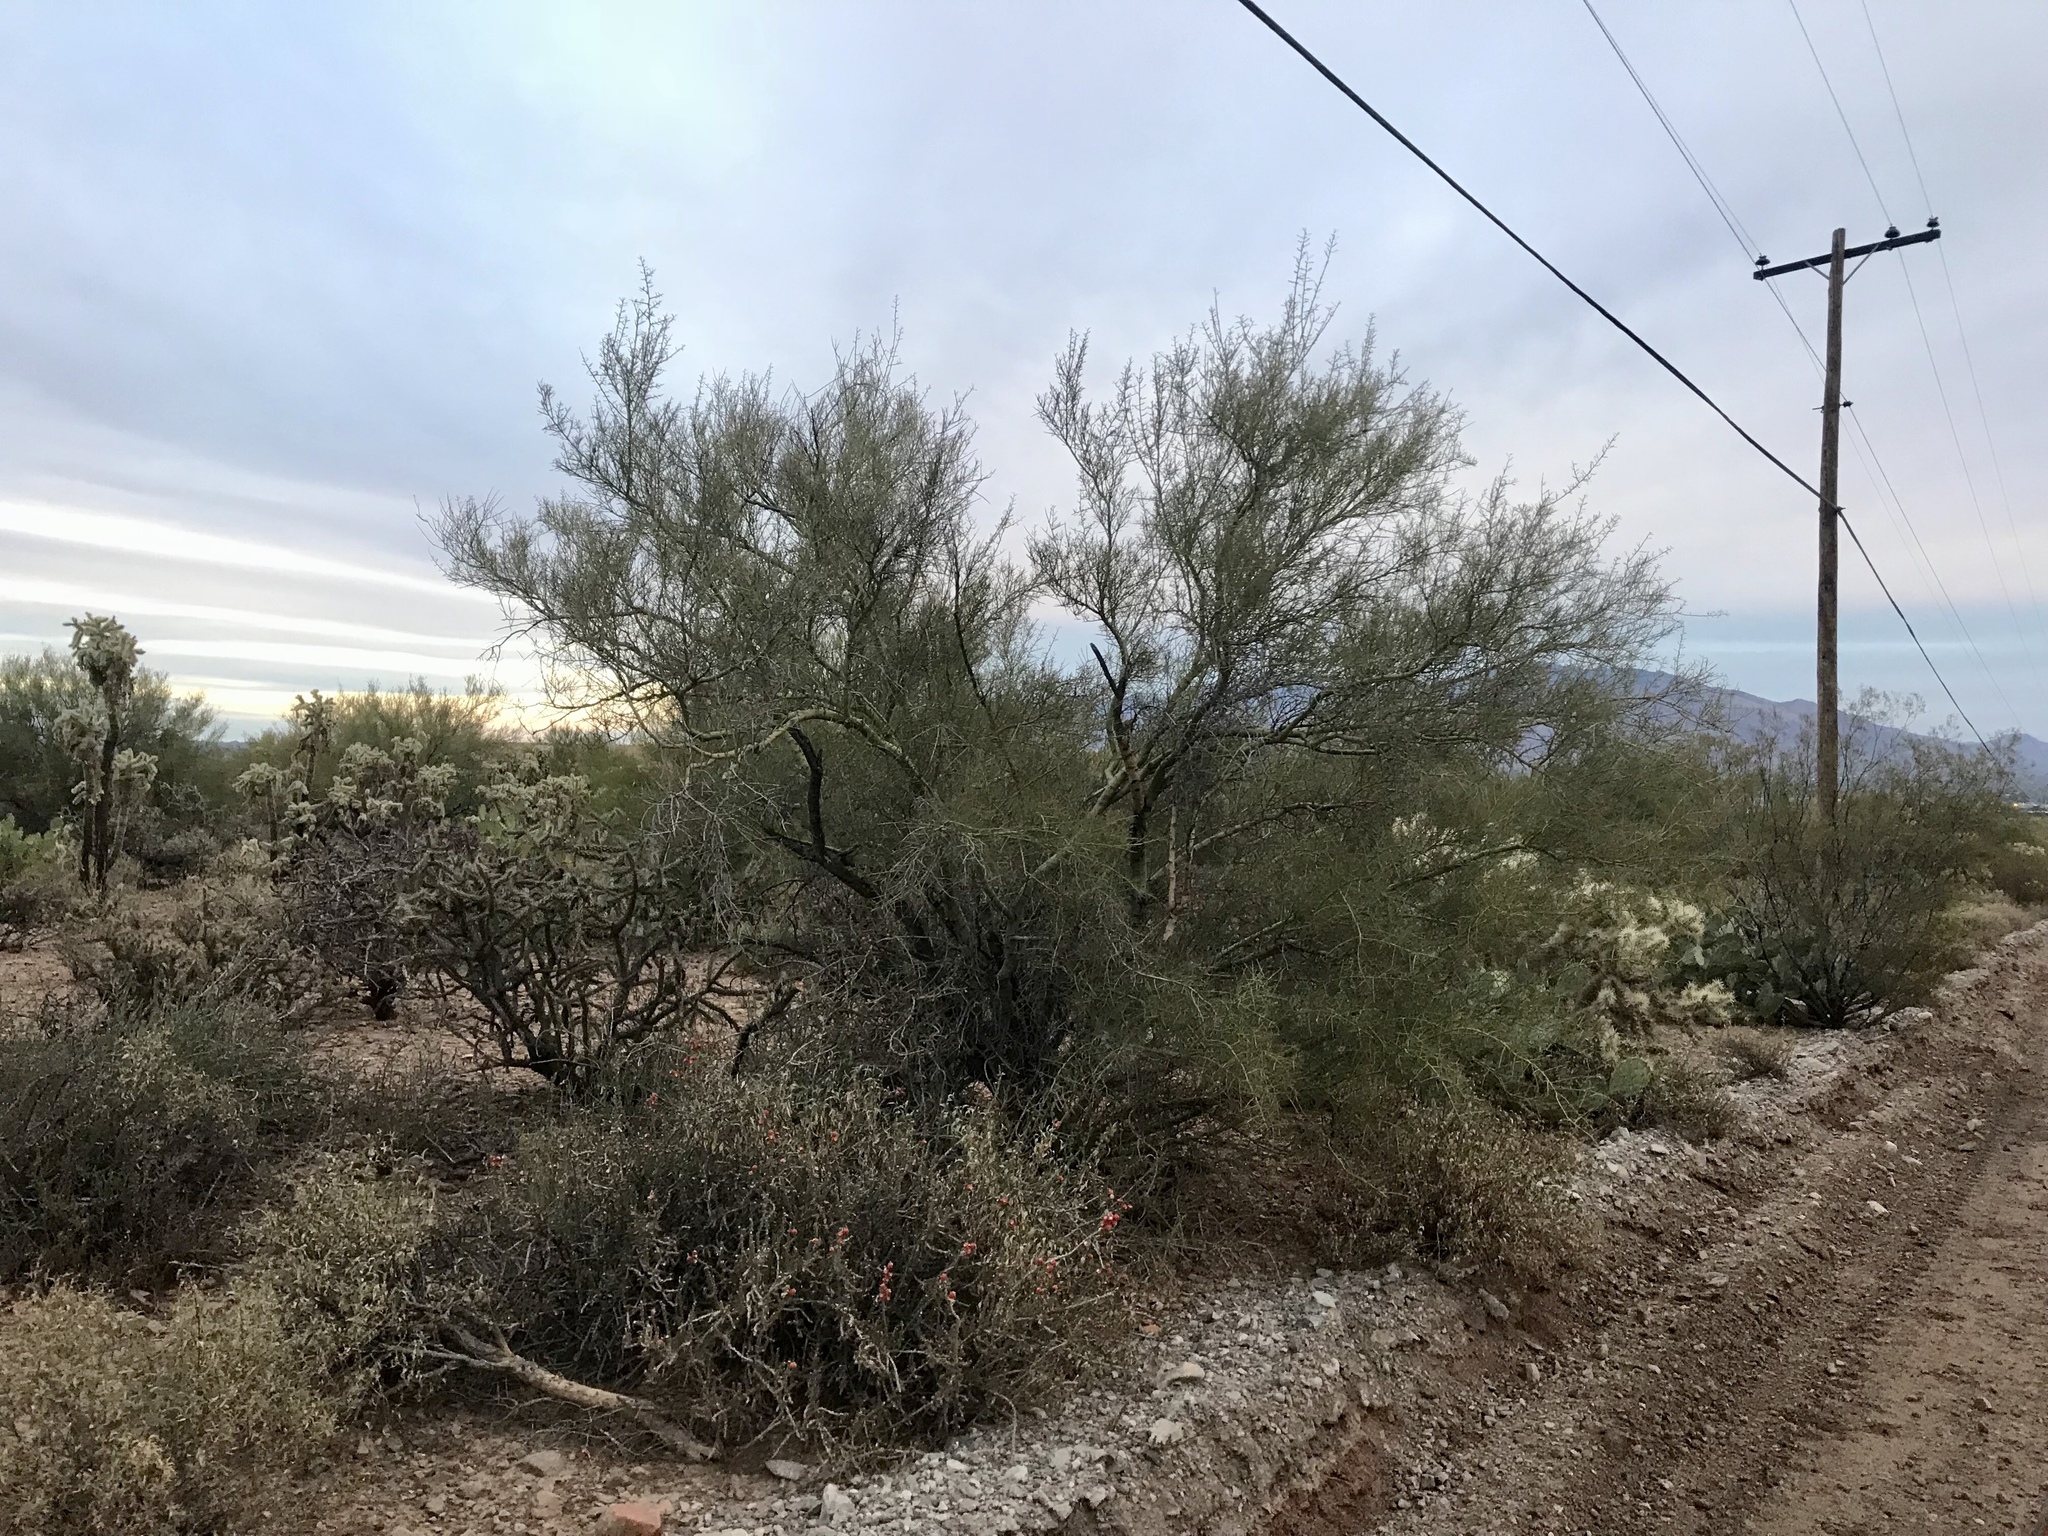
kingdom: Plantae
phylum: Tracheophyta
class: Magnoliopsida
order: Fabales
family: Fabaceae
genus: Parkinsonia
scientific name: Parkinsonia microphylla
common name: Yellow paloverde
